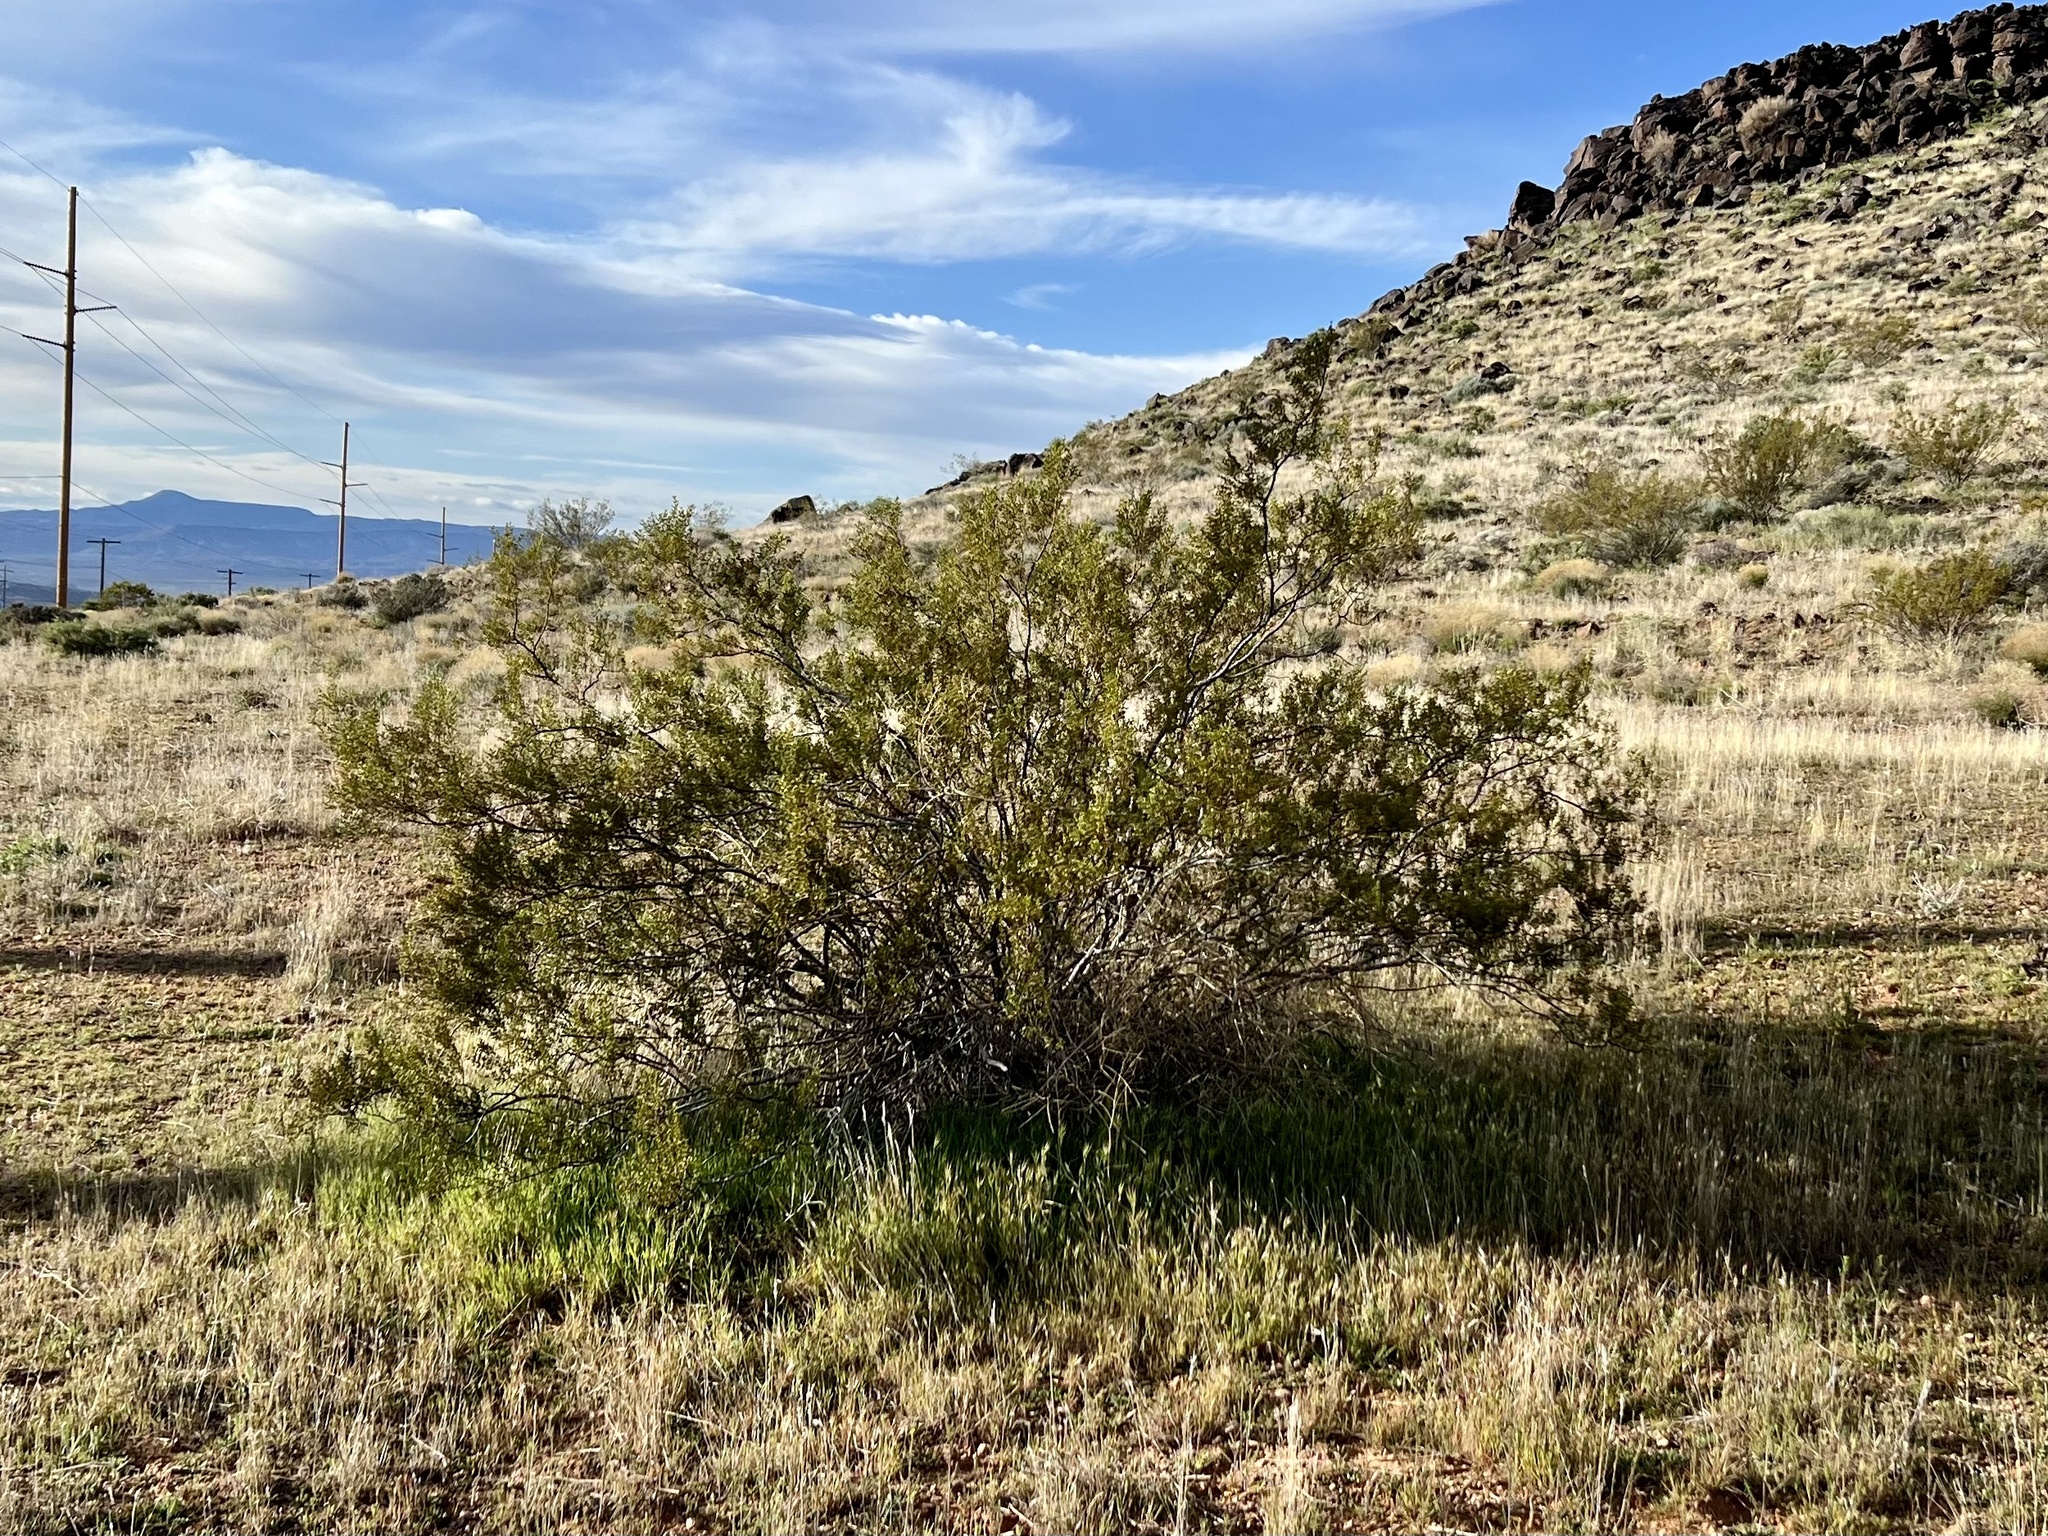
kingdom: Plantae
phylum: Tracheophyta
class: Magnoliopsida
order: Zygophyllales
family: Zygophyllaceae
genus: Larrea
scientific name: Larrea tridentata
